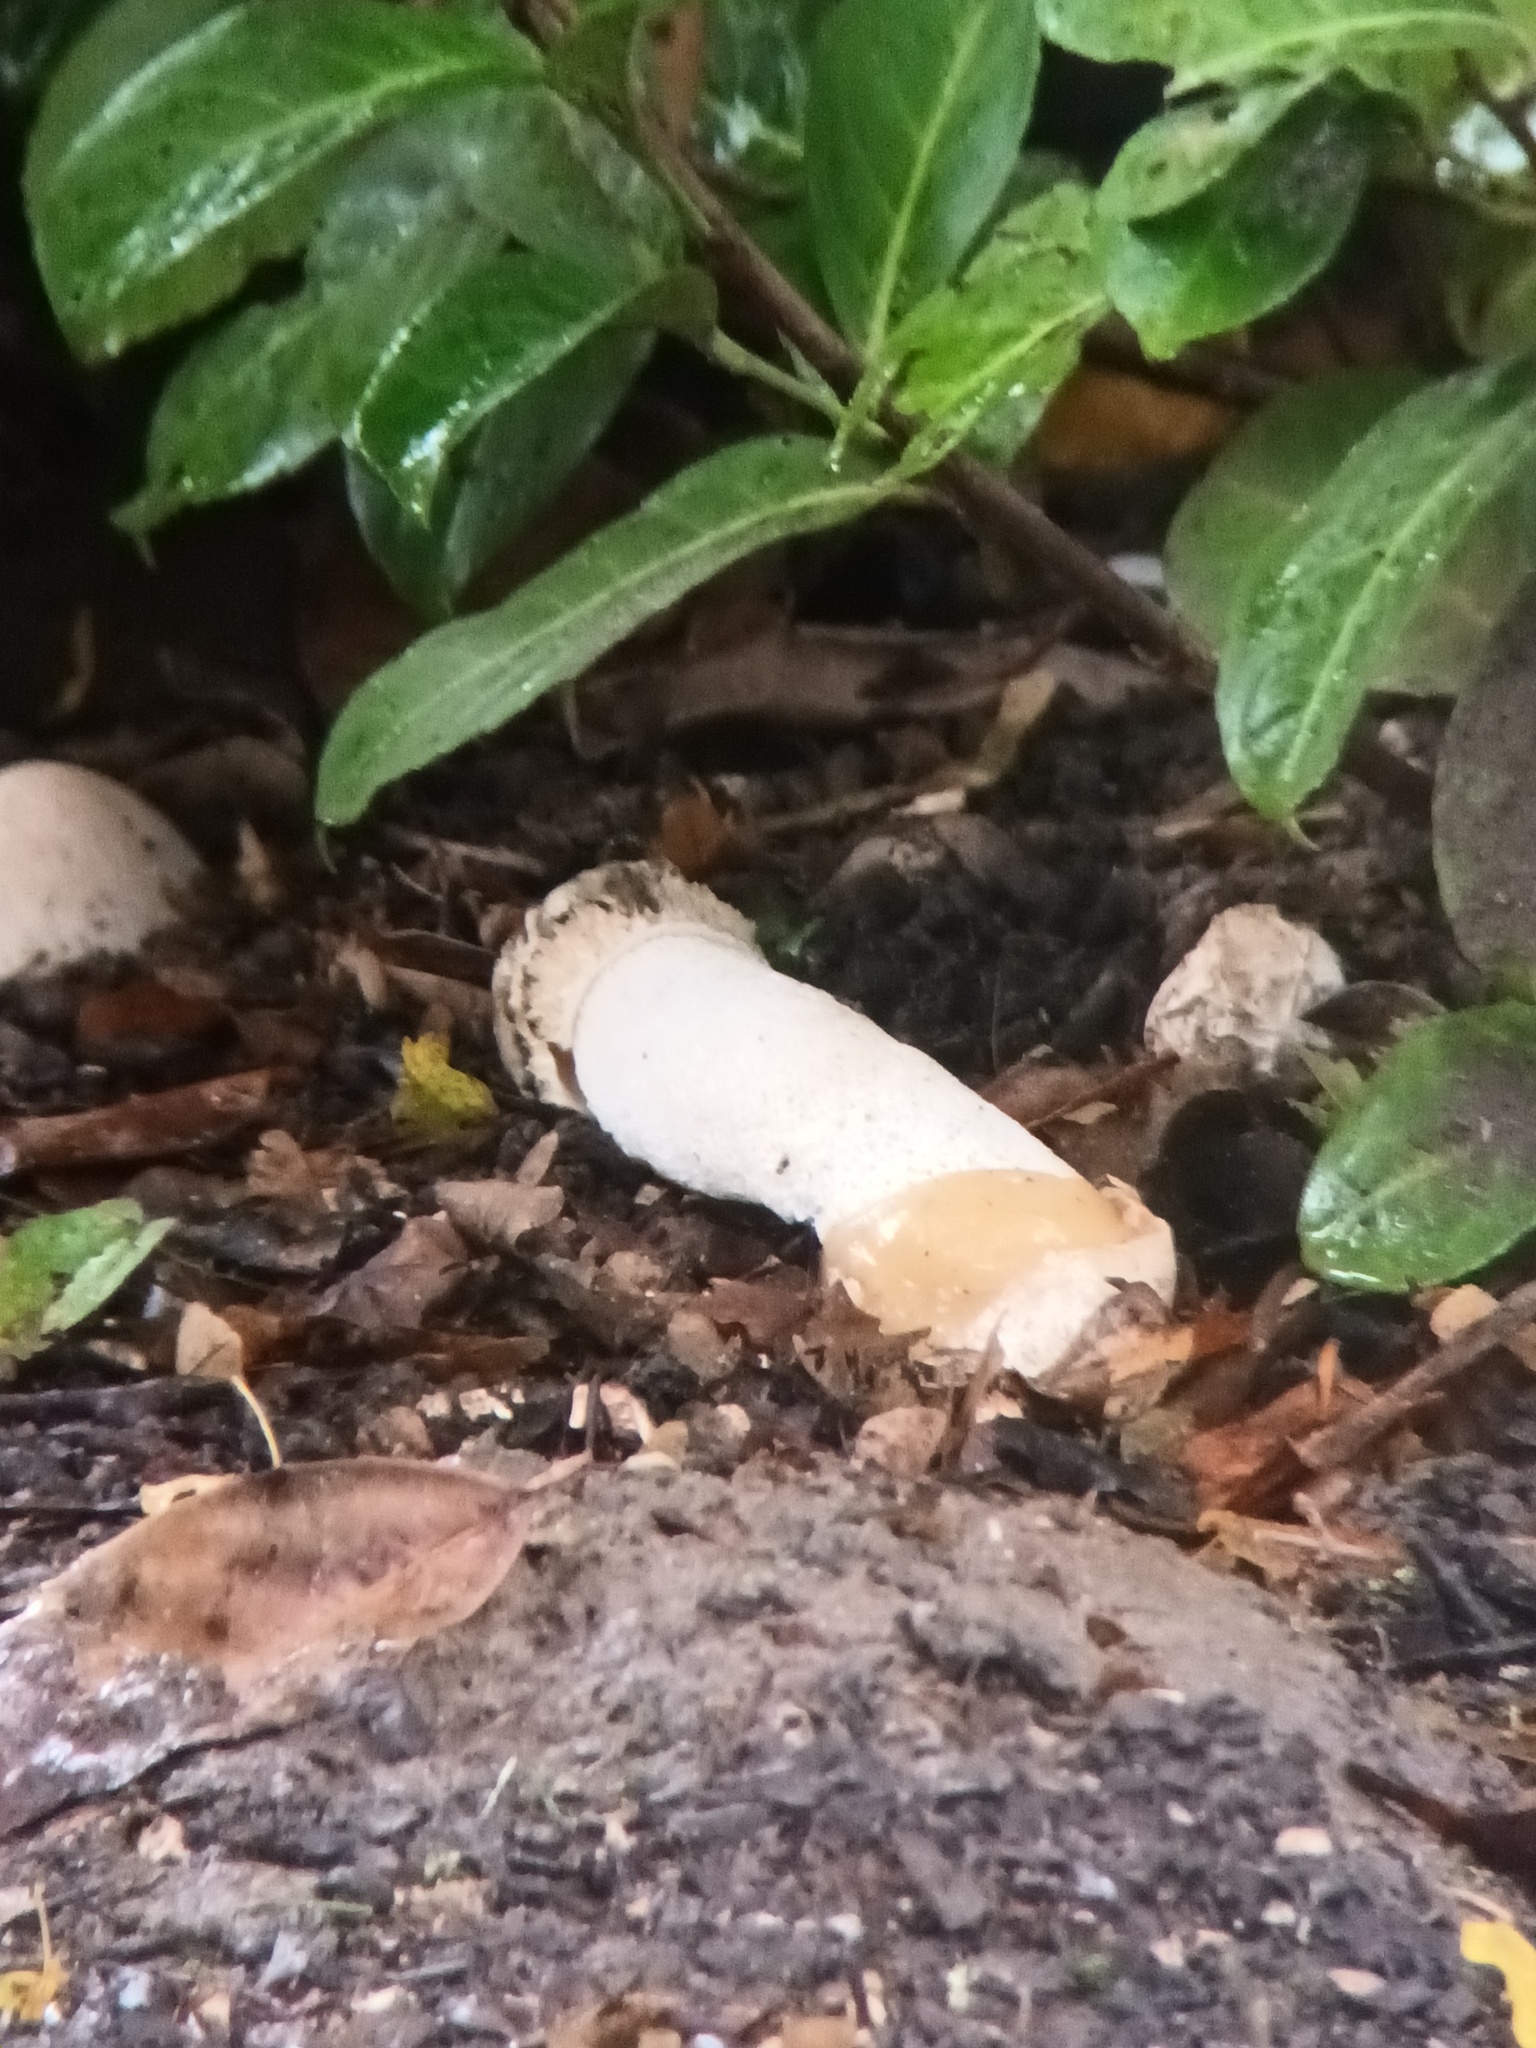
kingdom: Fungi
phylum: Basidiomycota
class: Agaricomycetes
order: Phallales
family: Phallaceae
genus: Phallus
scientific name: Phallus impudicus
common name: Common stinkhorn
